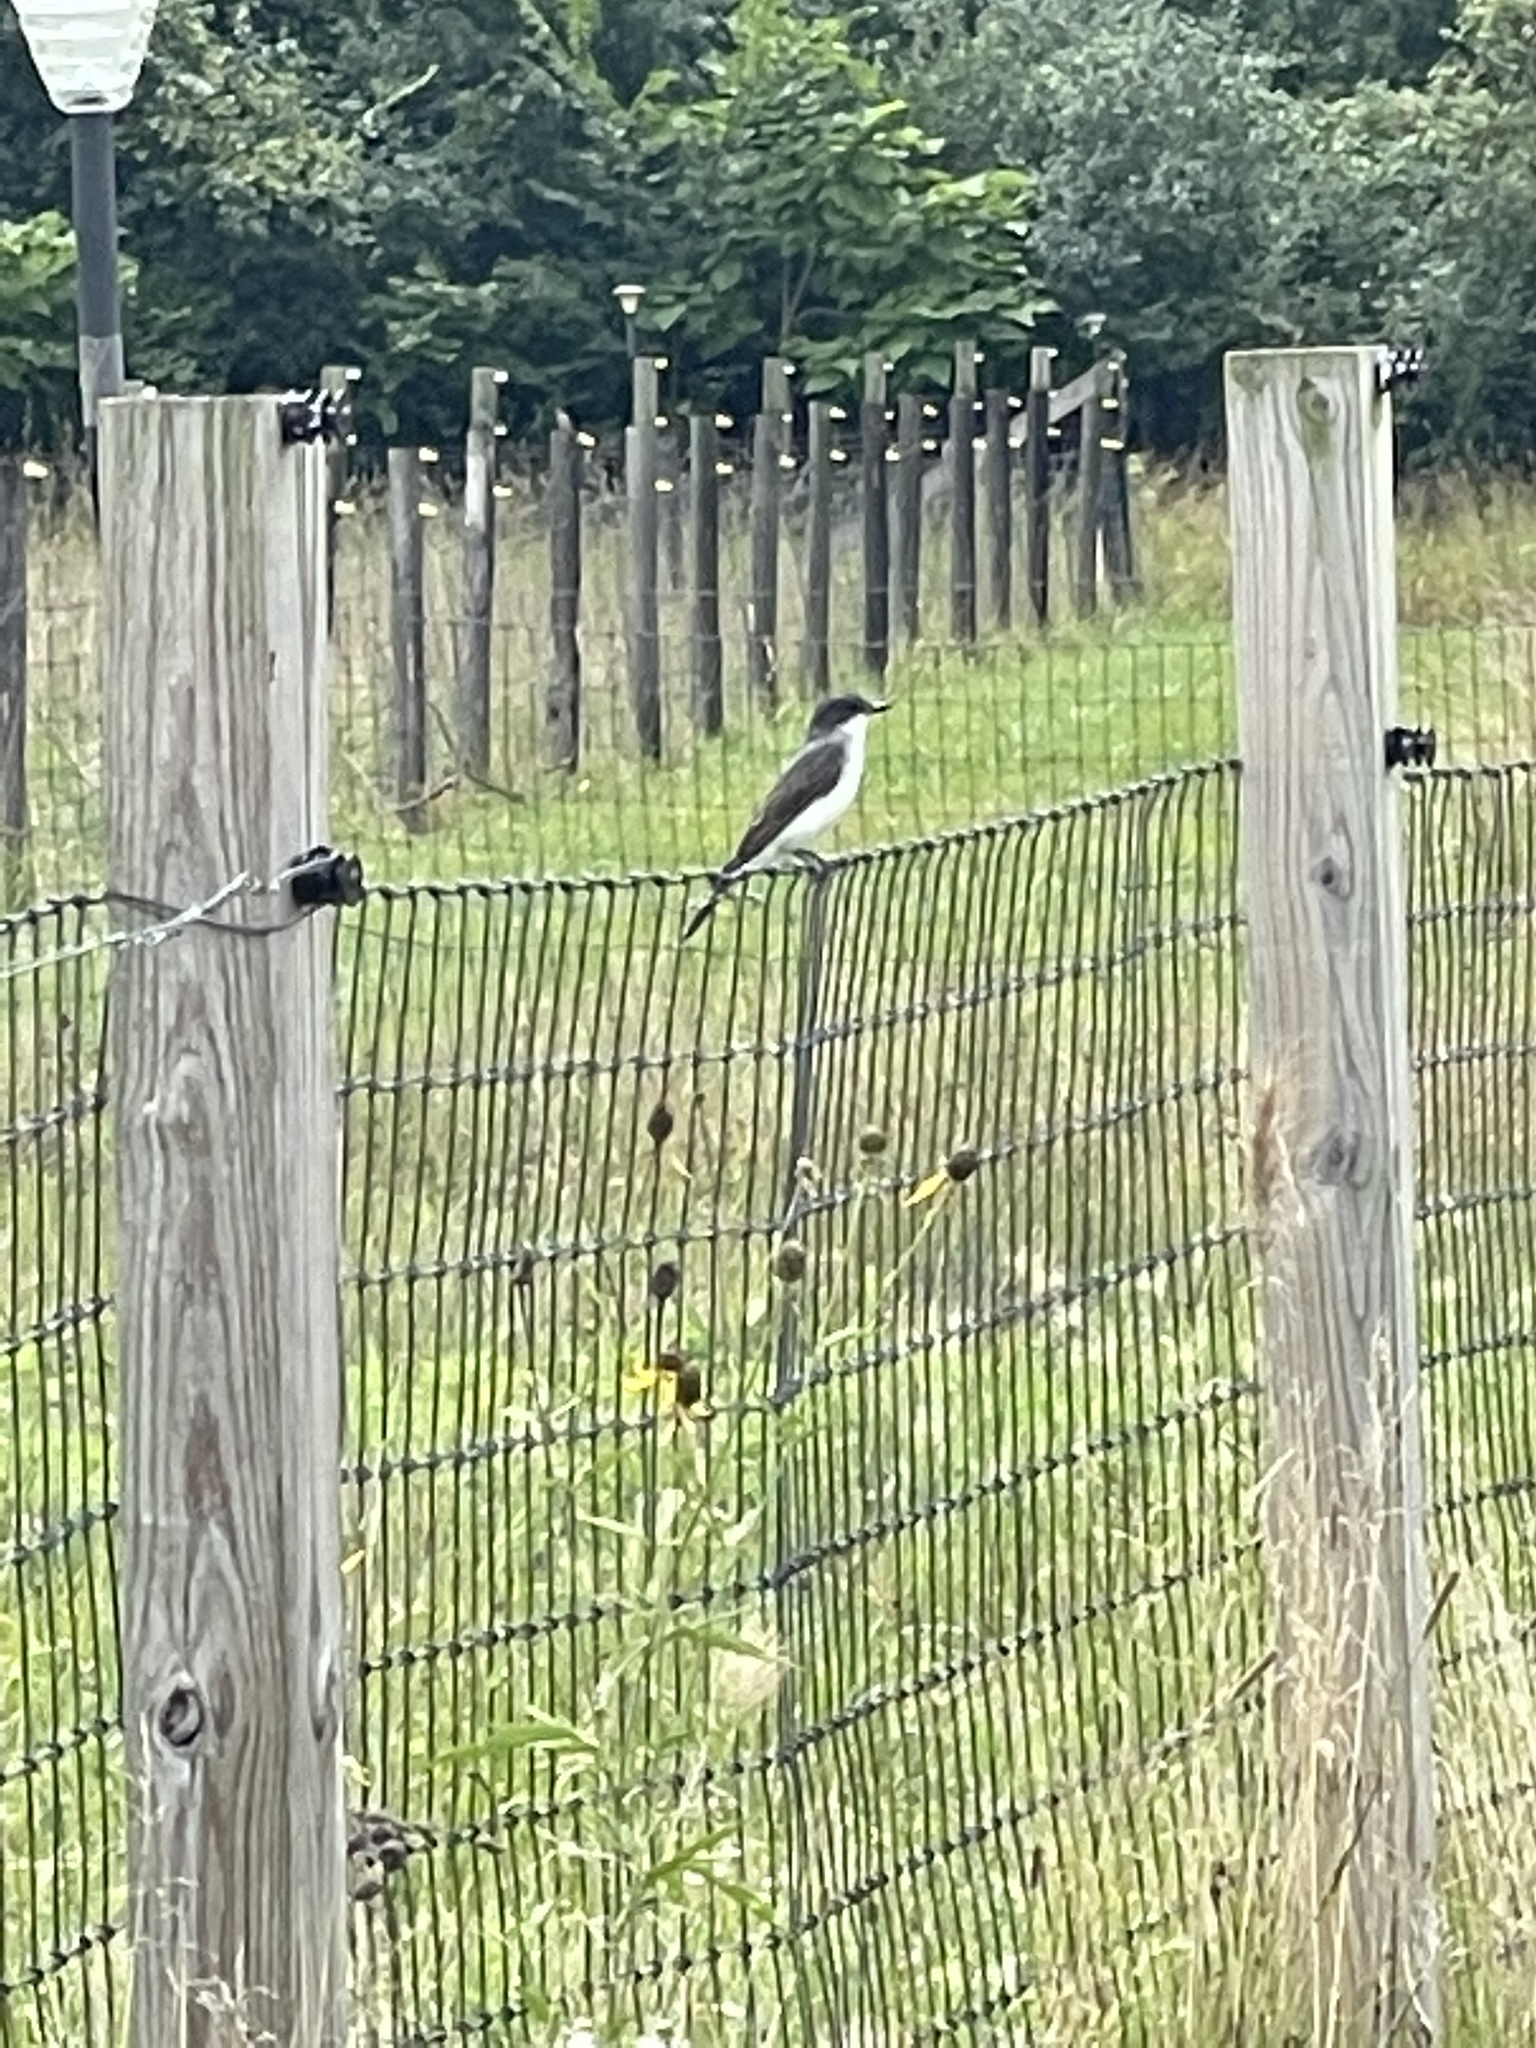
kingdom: Animalia
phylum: Chordata
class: Aves
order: Passeriformes
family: Tyrannidae
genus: Tyrannus
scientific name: Tyrannus tyrannus
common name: Eastern kingbird
